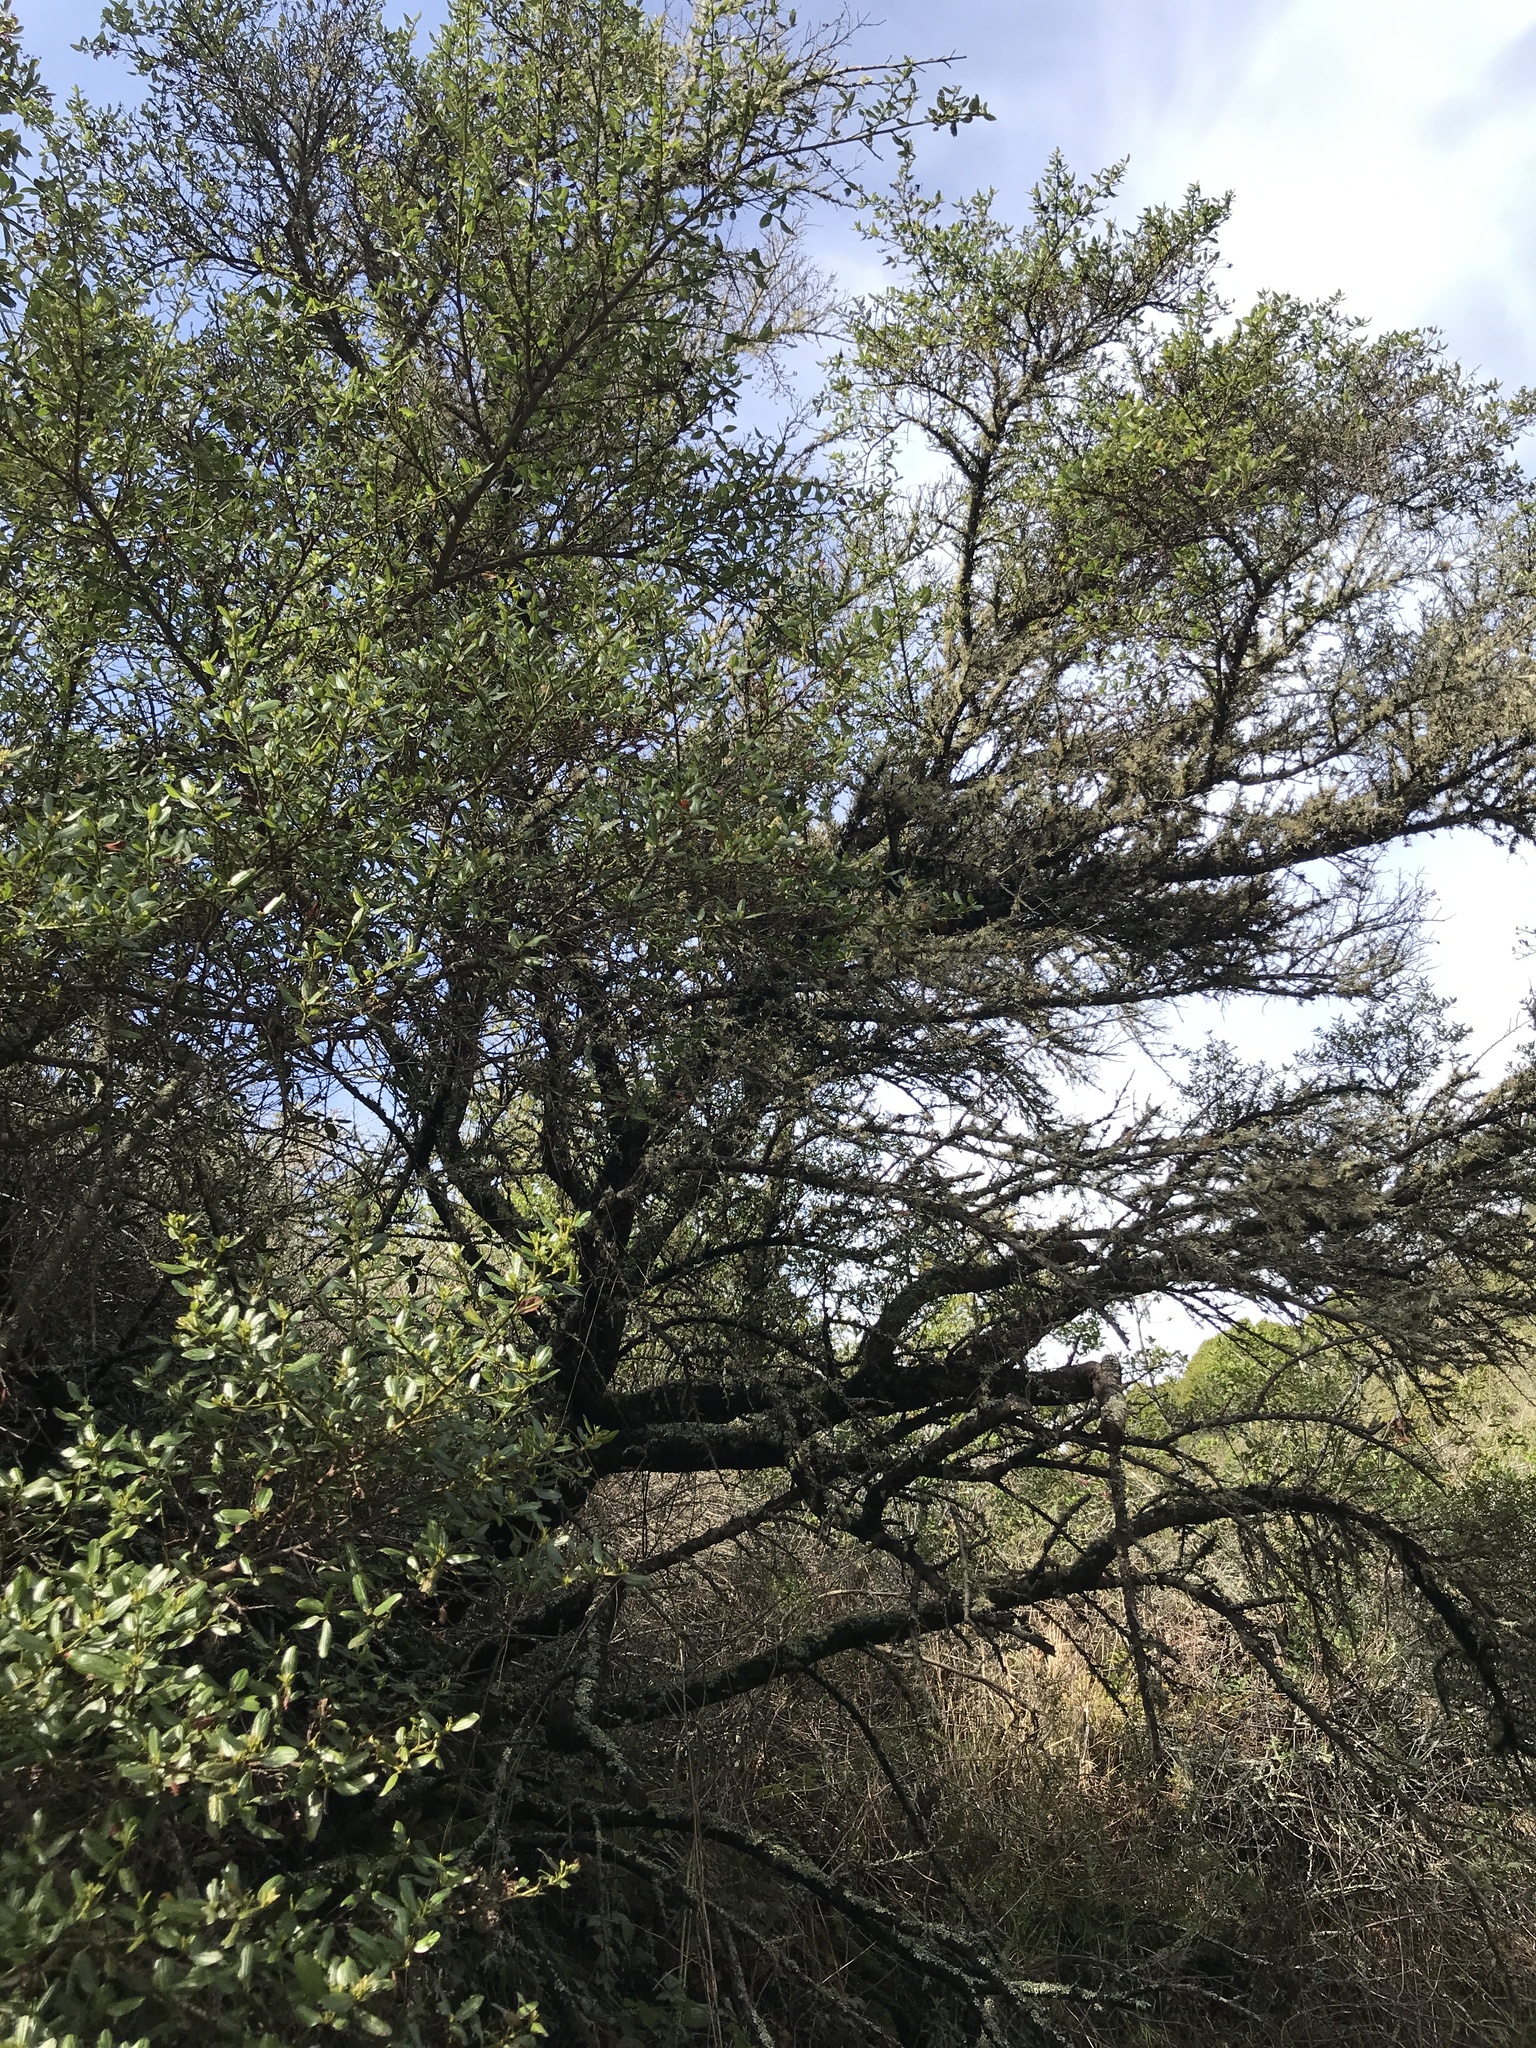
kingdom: Plantae
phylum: Tracheophyta
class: Magnoliopsida
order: Rosales
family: Rhamnaceae
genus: Ceanothus
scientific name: Ceanothus thyrsiflorus
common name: California-lilac
